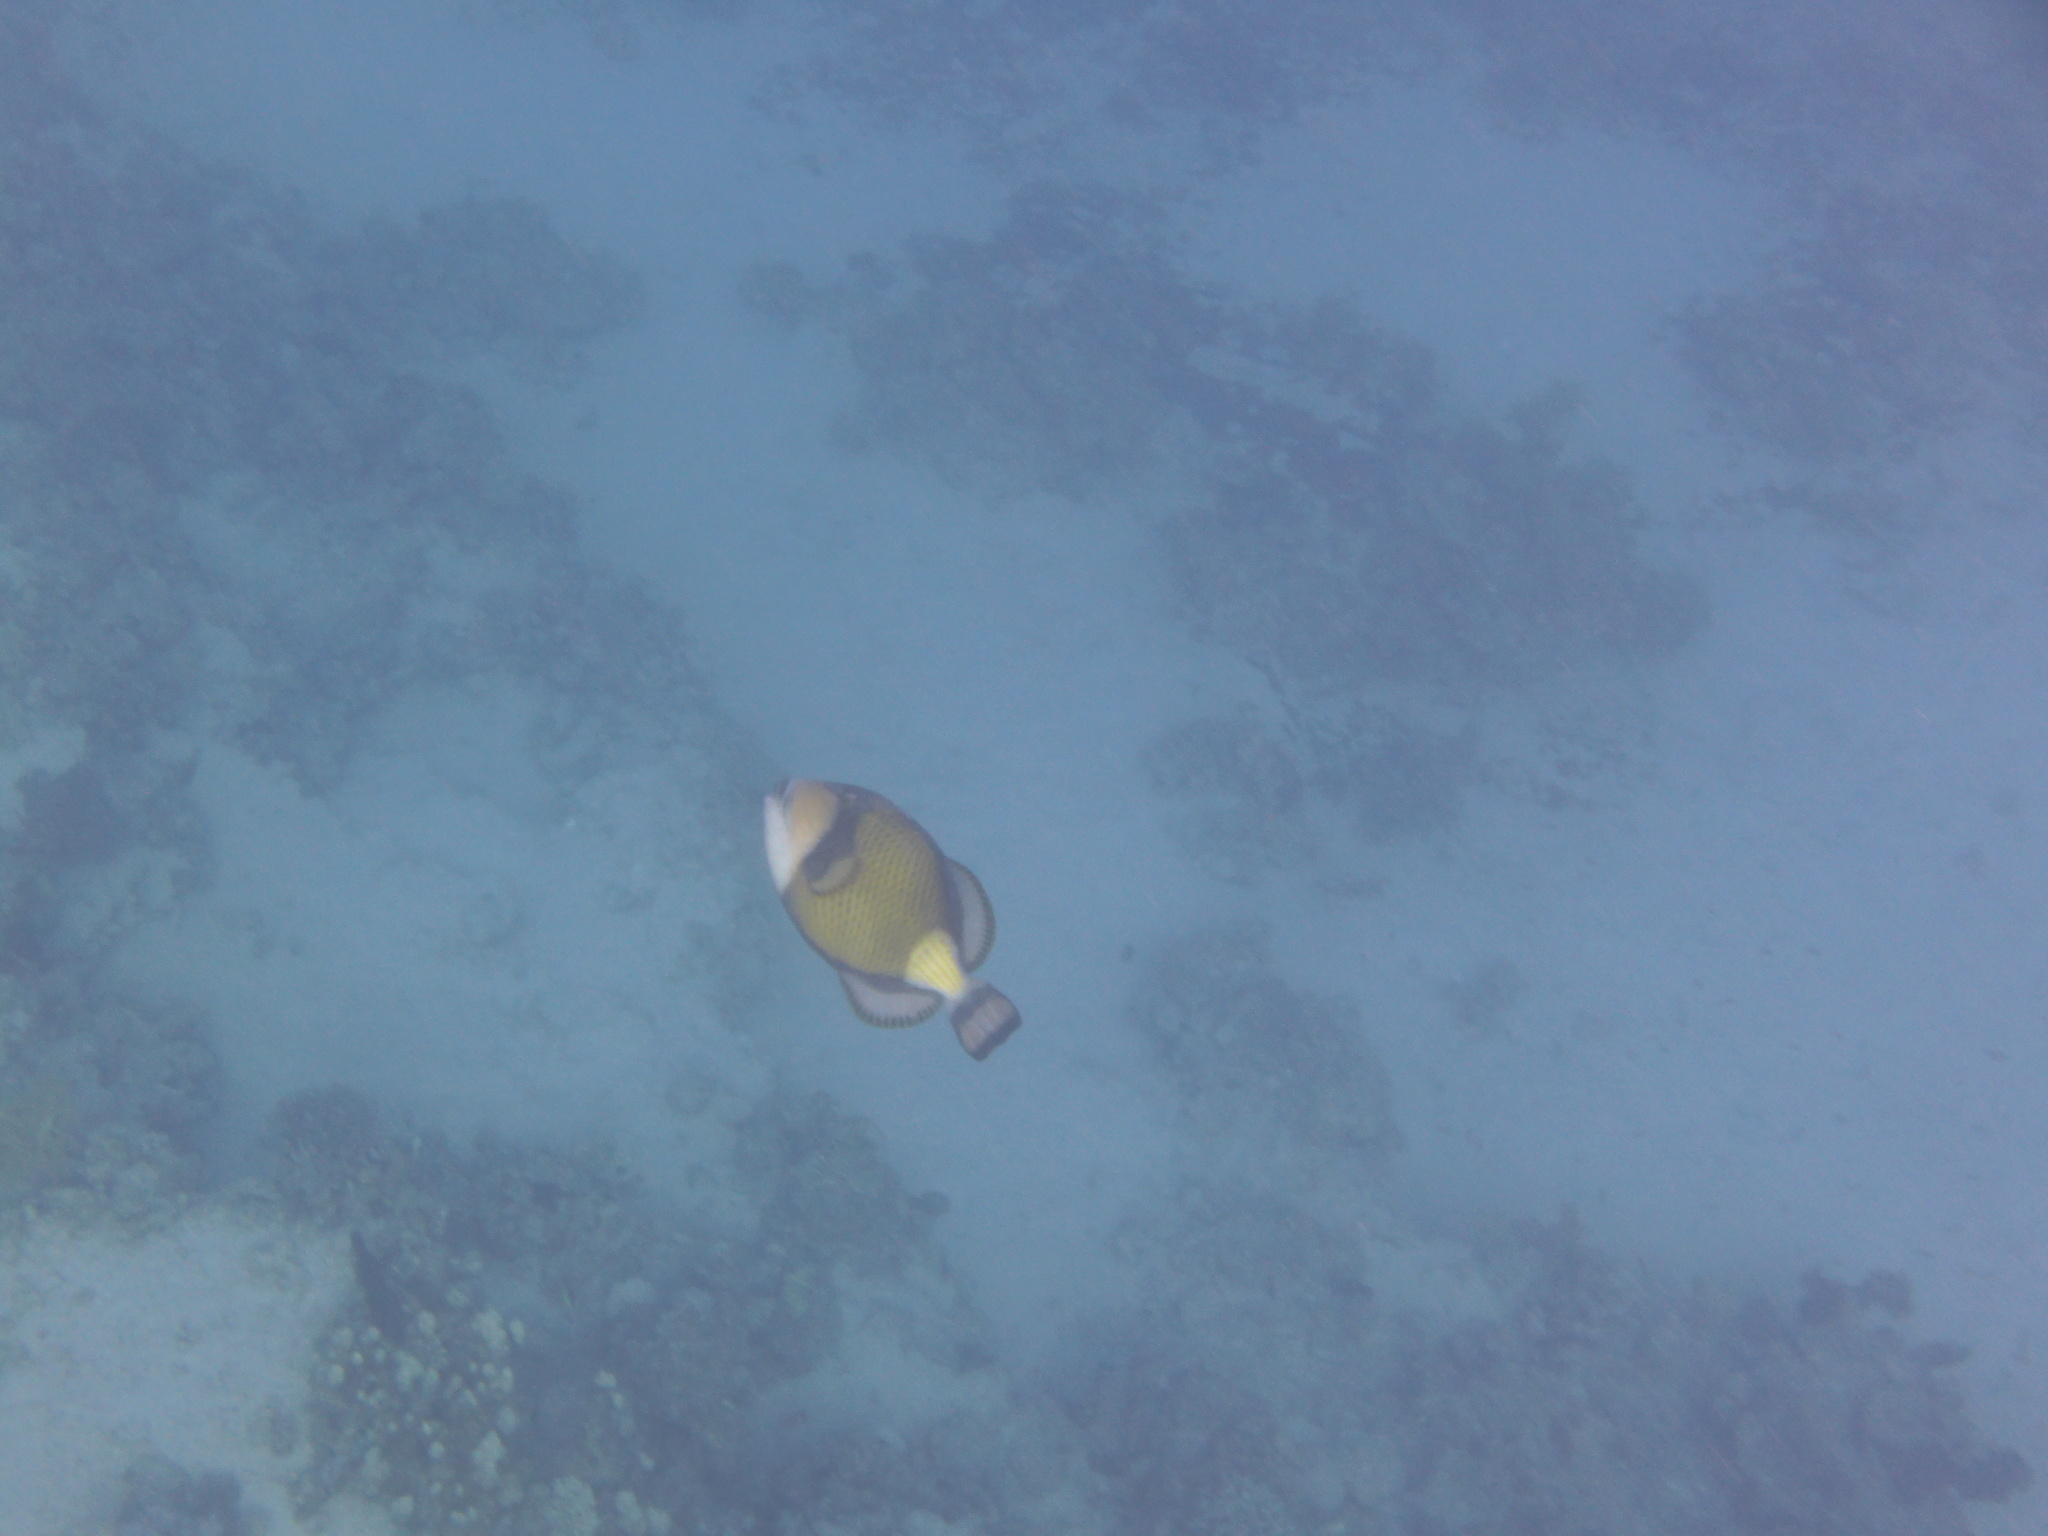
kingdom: Animalia
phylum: Chordata
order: Tetraodontiformes
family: Balistidae
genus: Balistoides
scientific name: Balistoides viridescens
